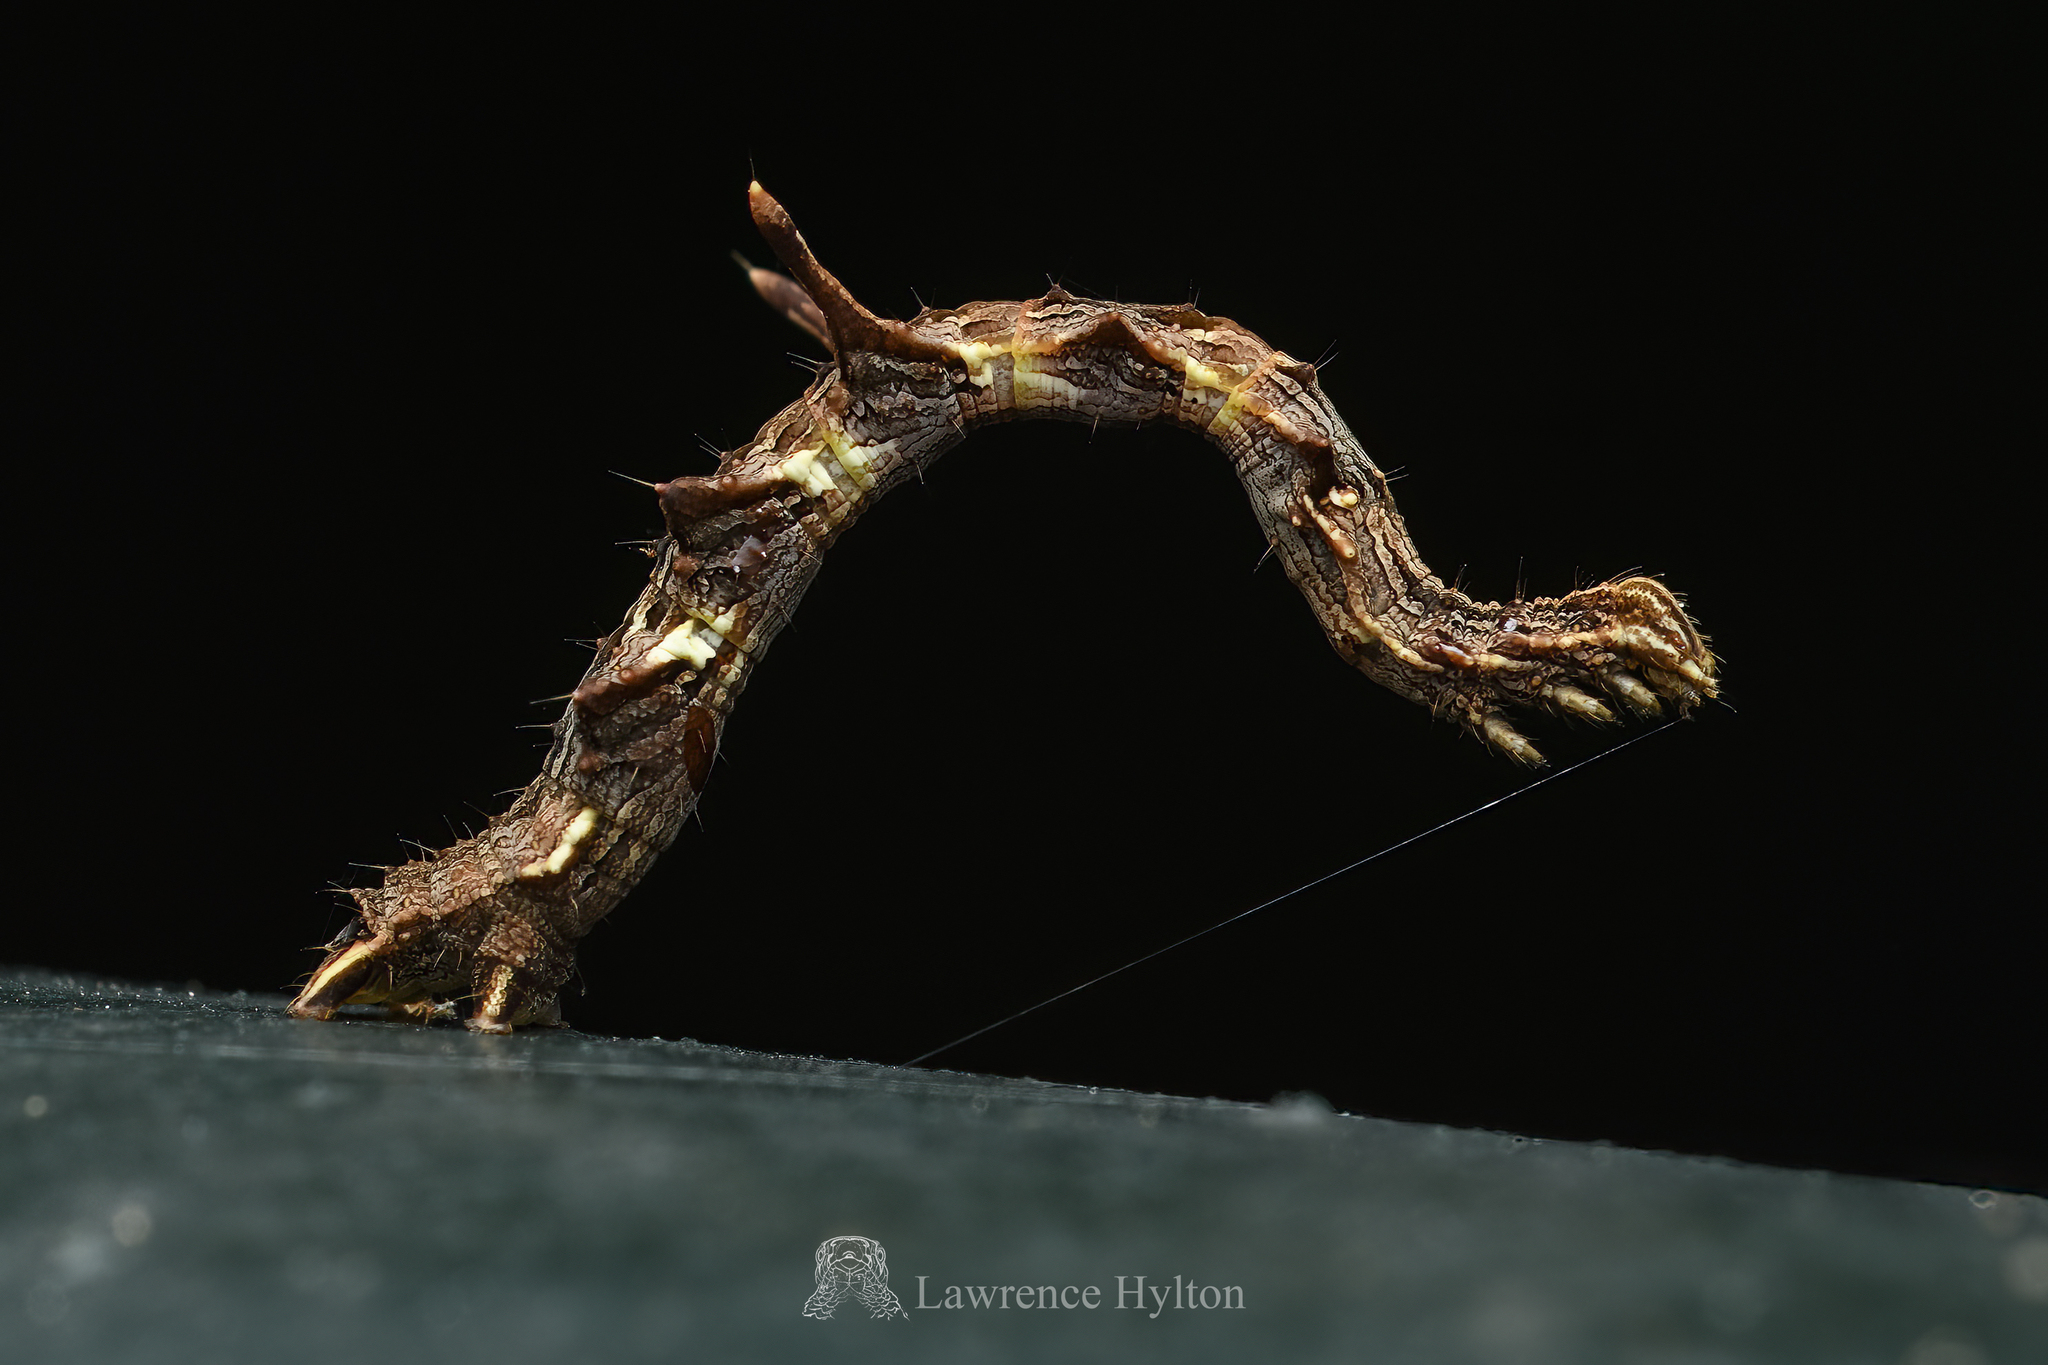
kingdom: Animalia
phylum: Arthropoda
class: Insecta
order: Lepidoptera
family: Geometridae
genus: Traminda
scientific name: Traminda aventiaria
